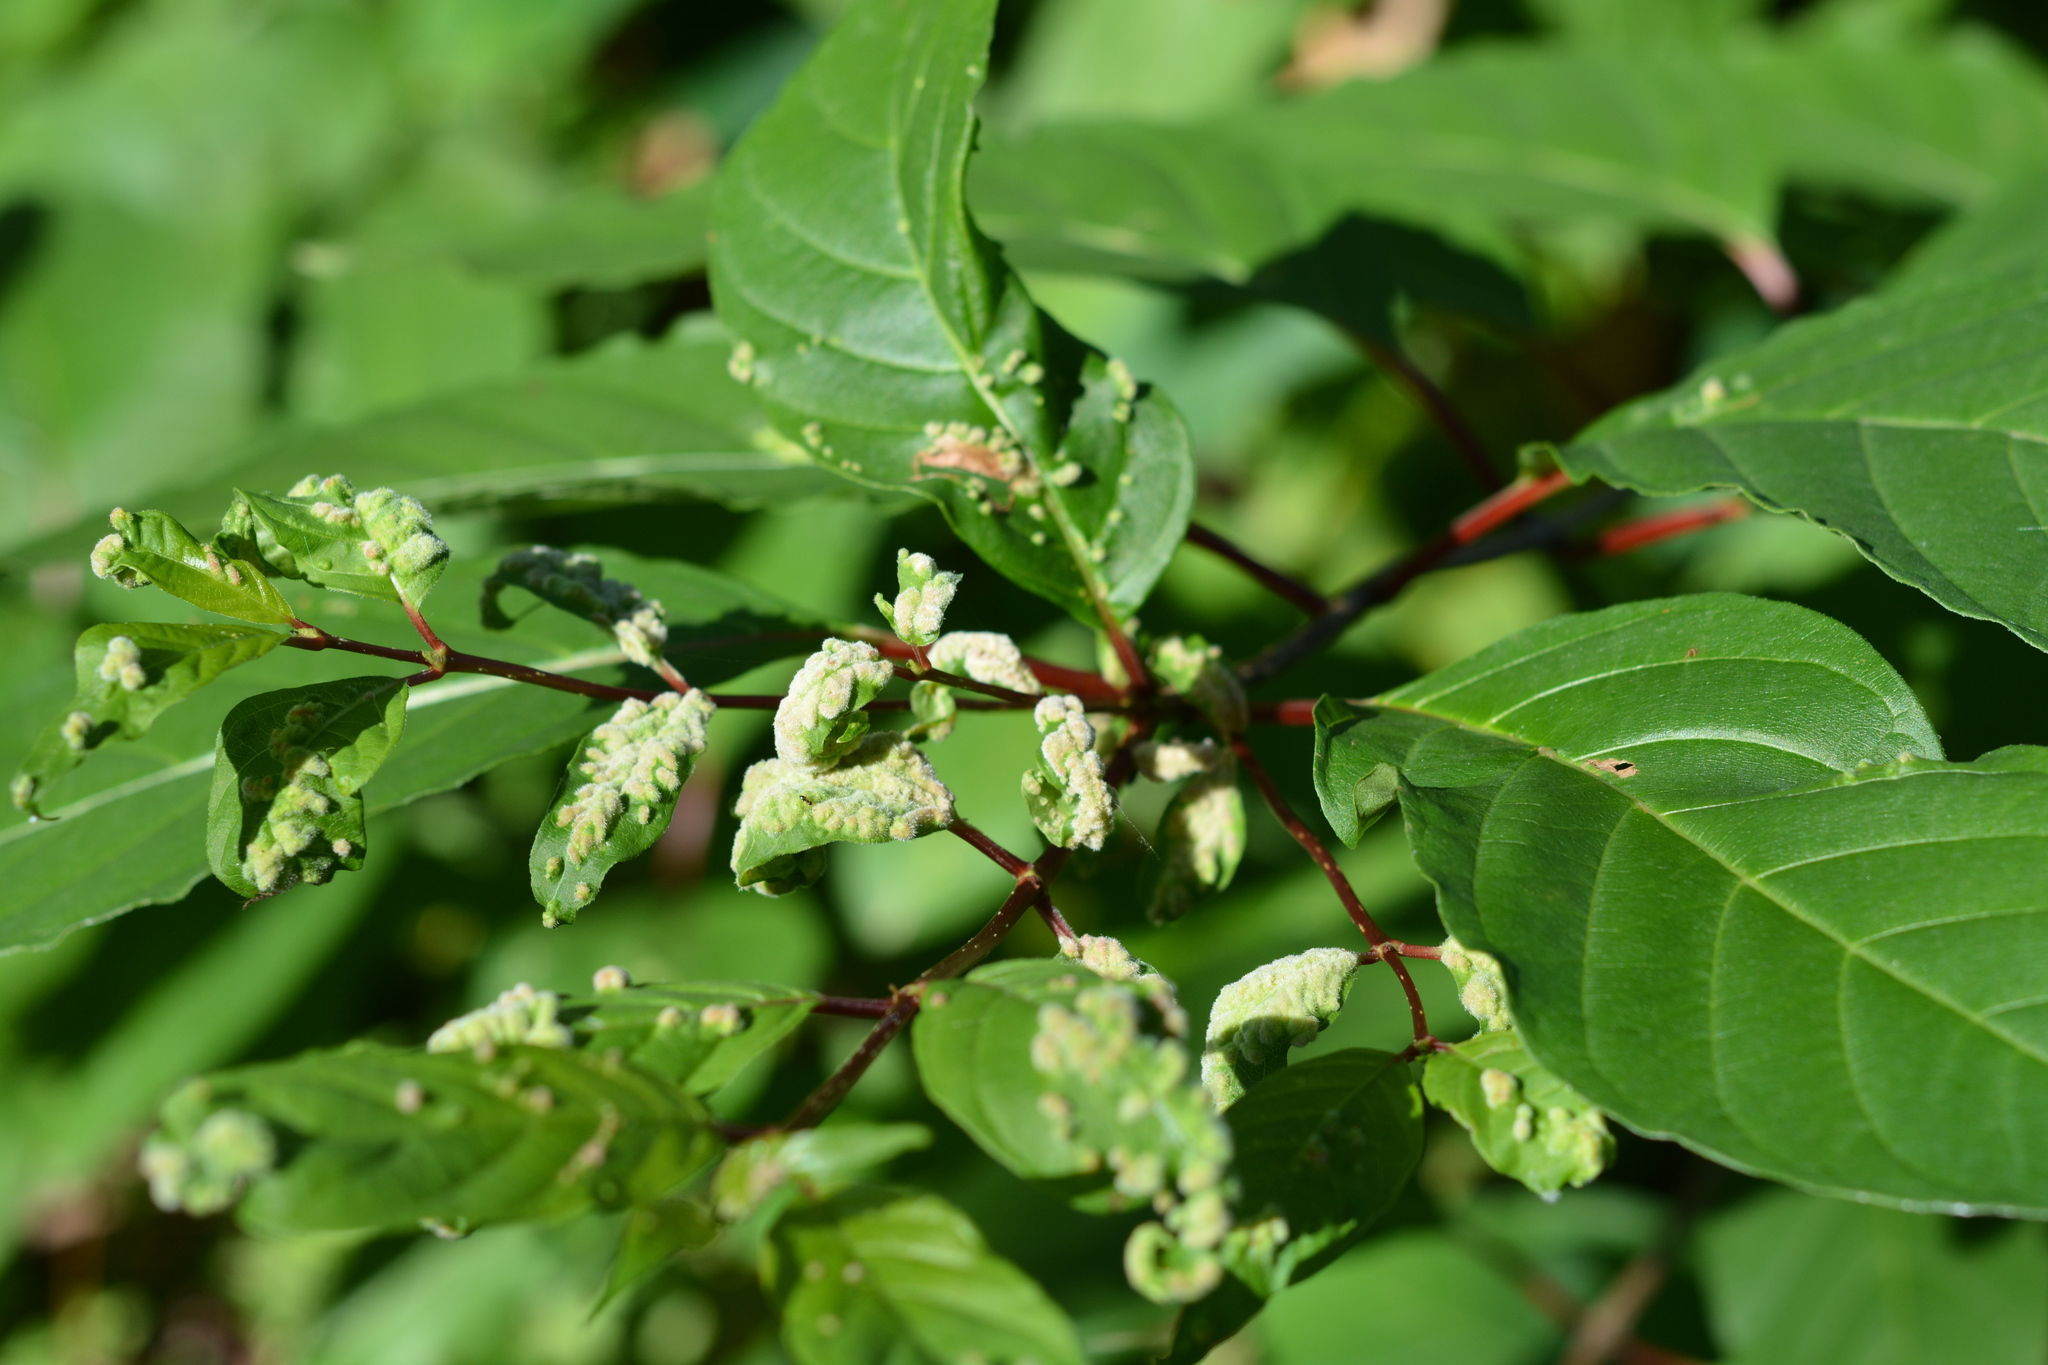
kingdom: Animalia
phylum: Arthropoda
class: Arachnida
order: Trombidiformes
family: Eriophyidae
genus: Aceria
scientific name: Aceria
